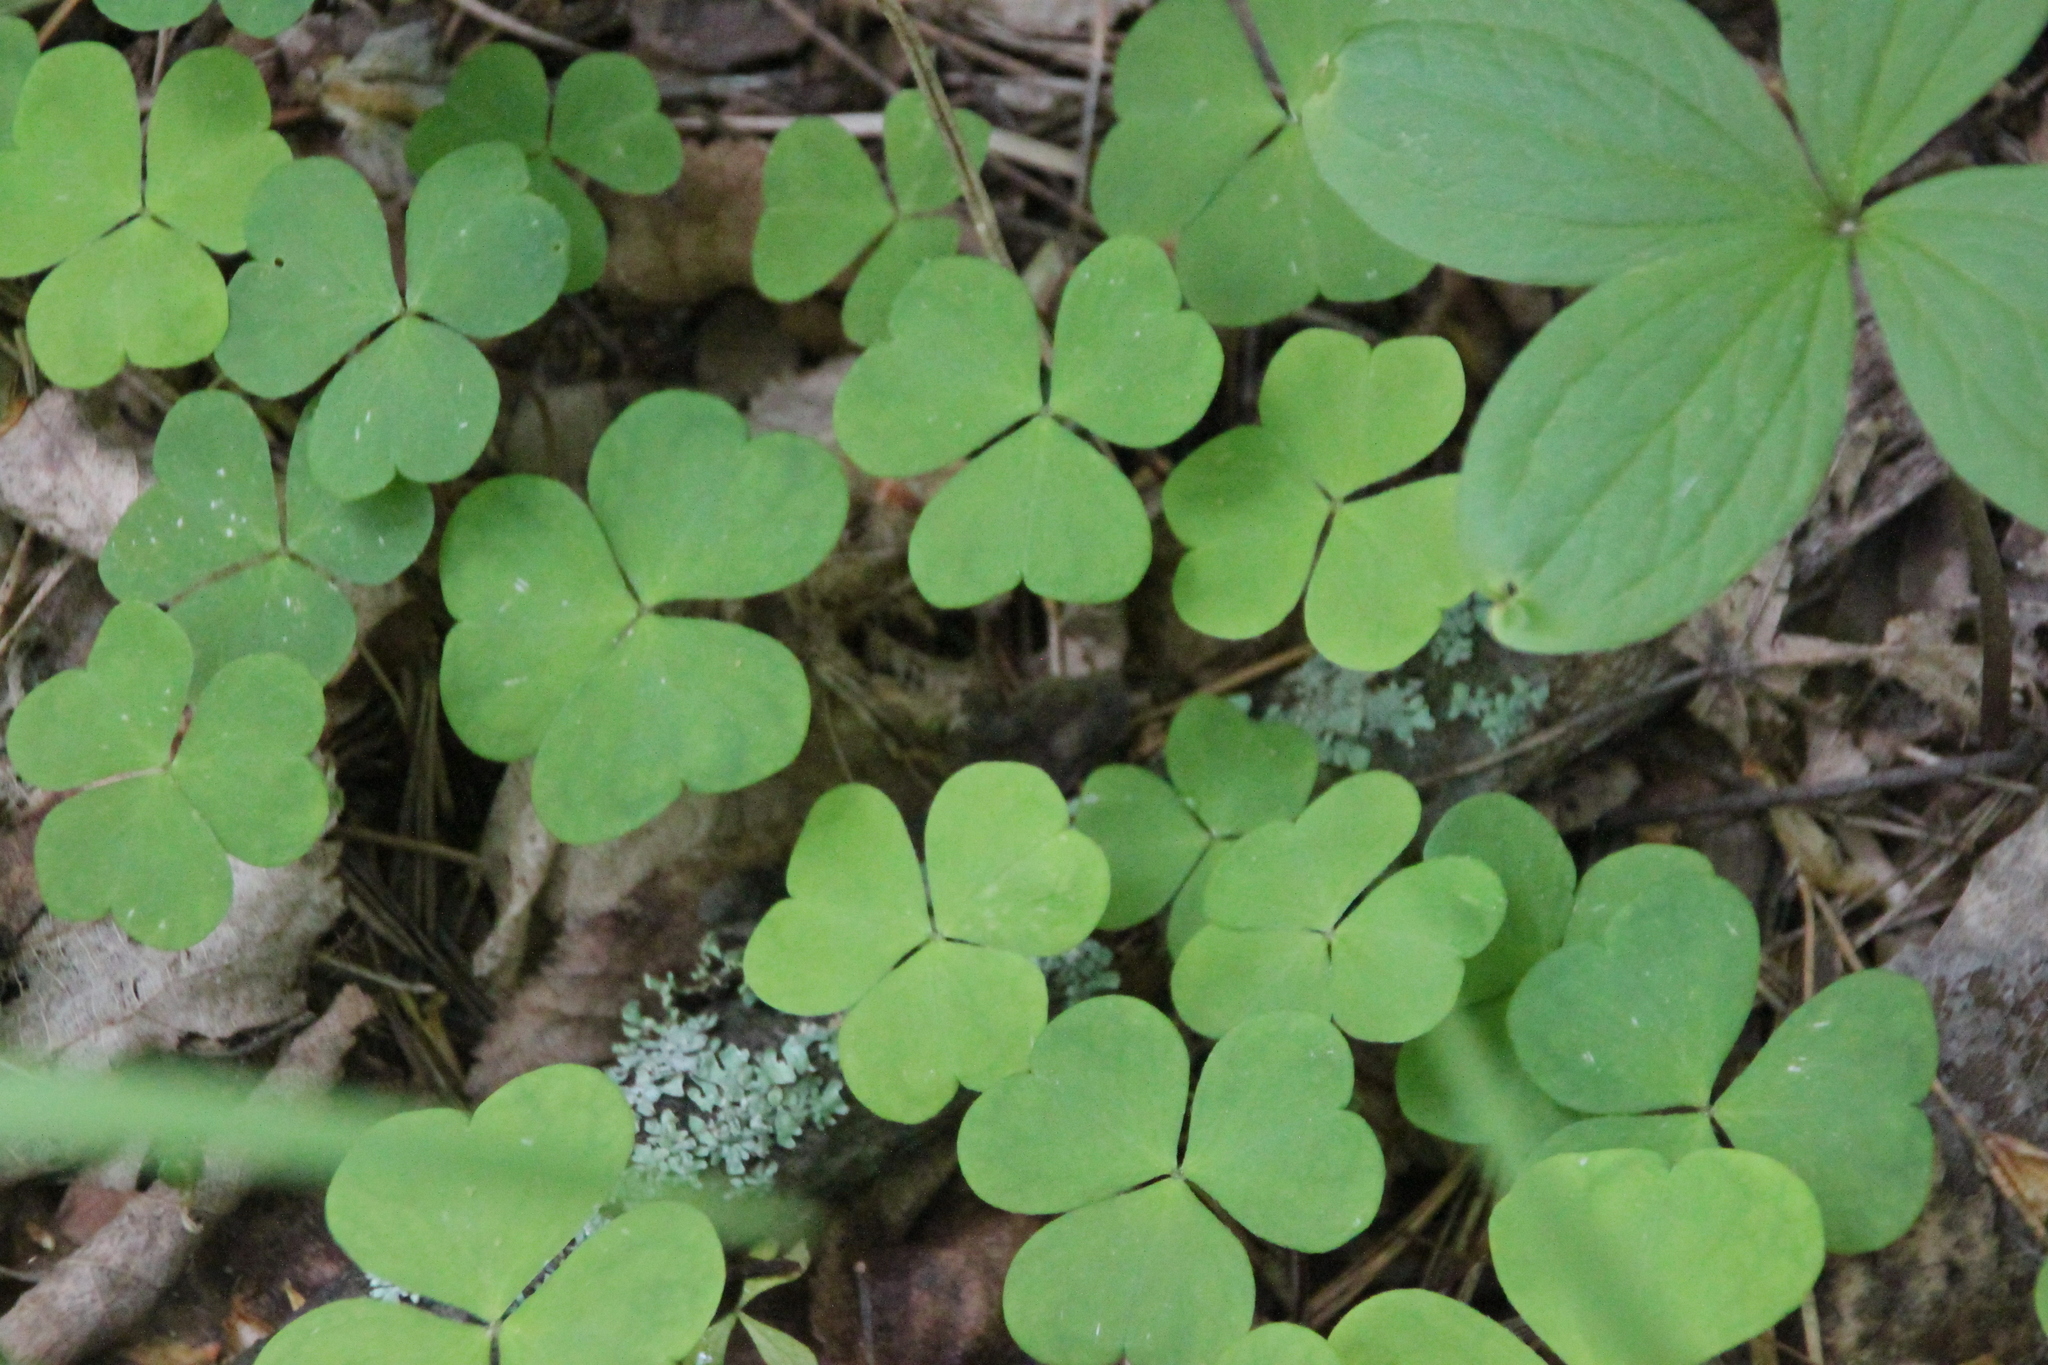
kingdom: Plantae
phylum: Tracheophyta
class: Magnoliopsida
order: Oxalidales
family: Oxalidaceae
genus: Oxalis
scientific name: Oxalis acetosella
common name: Wood-sorrel
